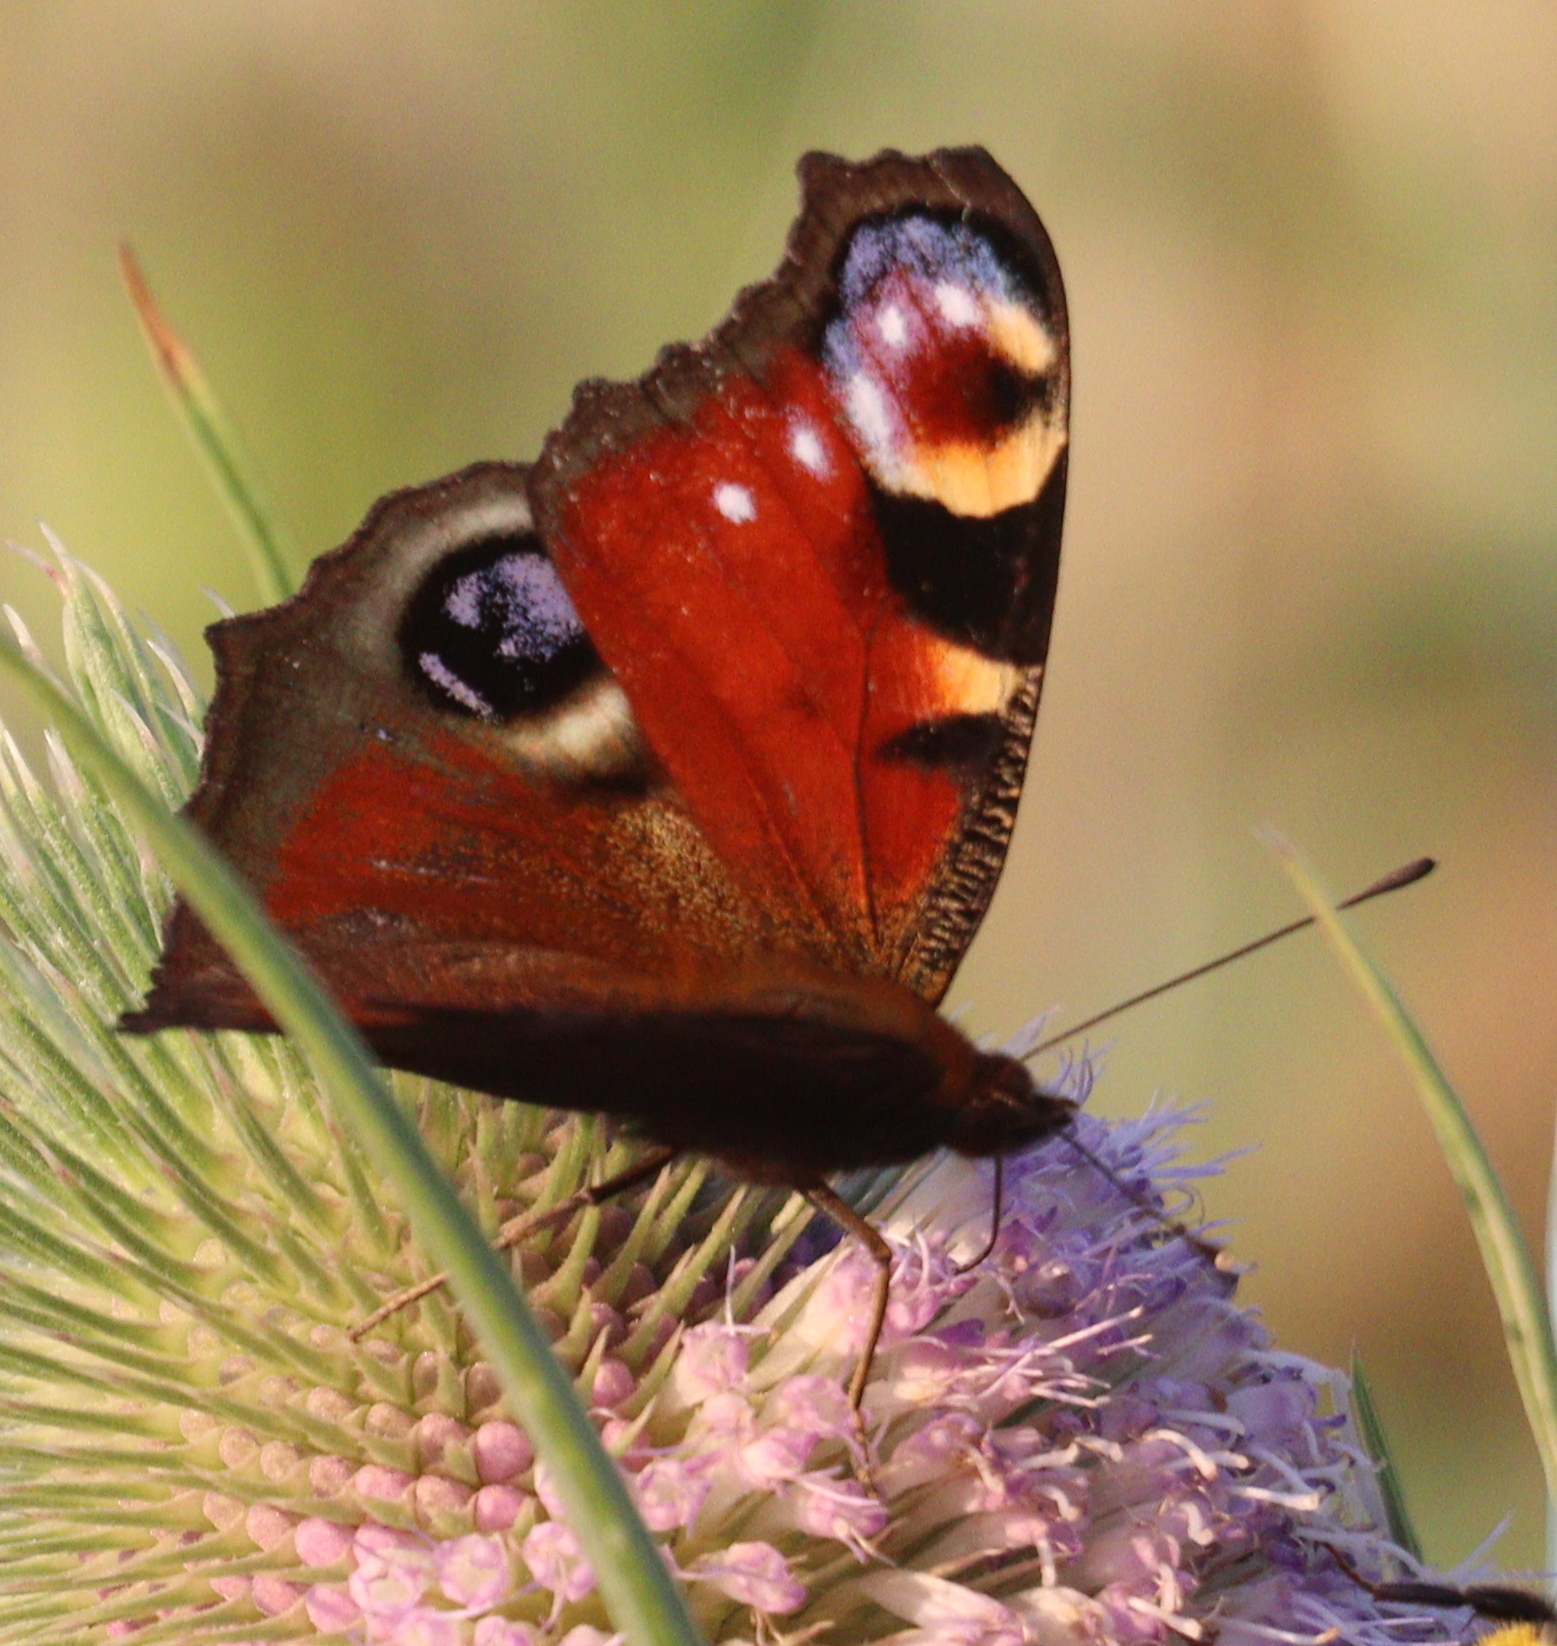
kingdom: Animalia
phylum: Arthropoda
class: Insecta
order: Lepidoptera
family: Nymphalidae
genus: Aglais
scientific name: Aglais io
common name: Peacock
